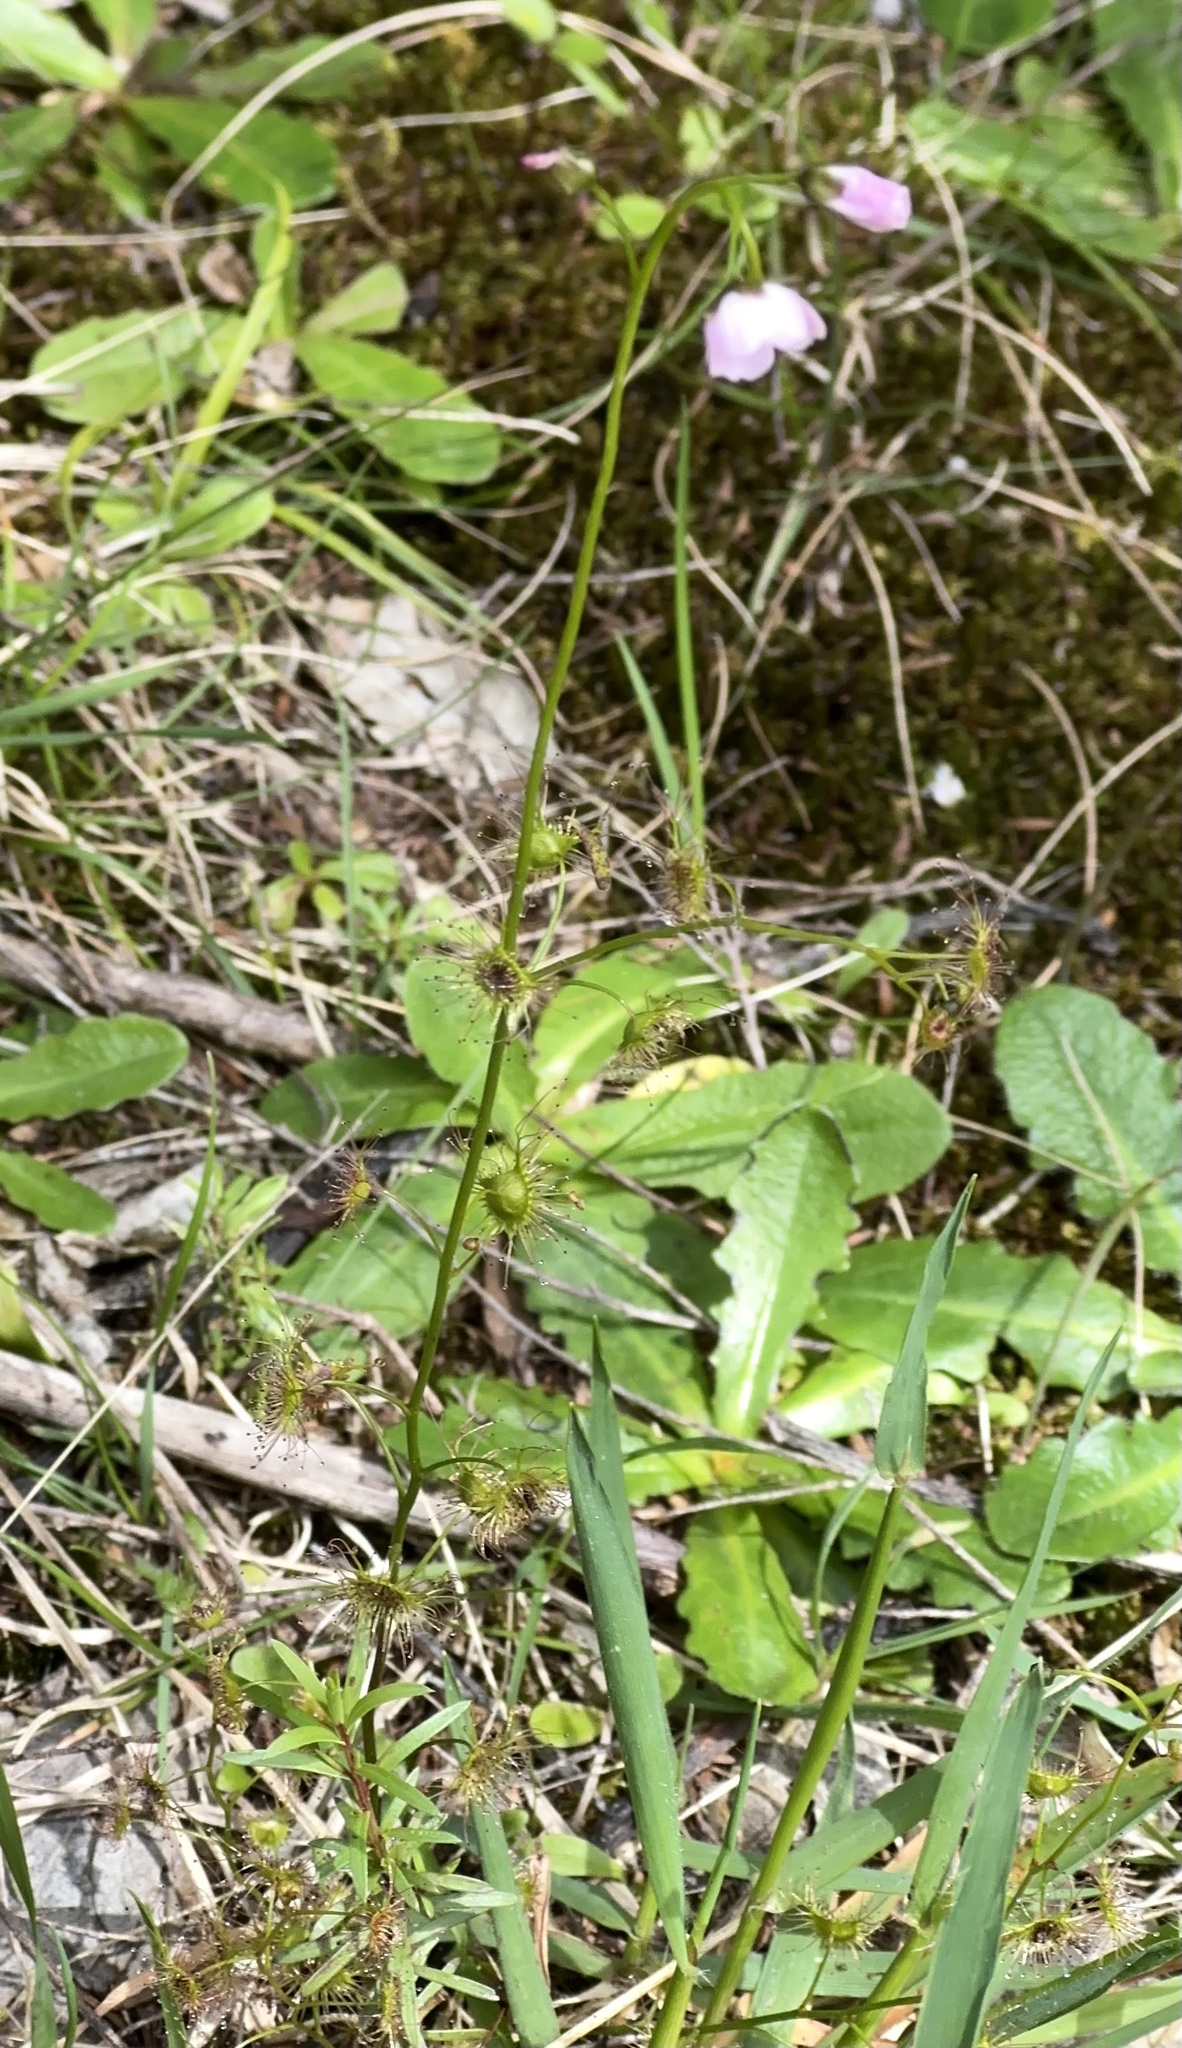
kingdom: Plantae
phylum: Tracheophyta
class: Magnoliopsida
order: Caryophyllales
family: Droseraceae
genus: Drosera
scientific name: Drosera peltata
